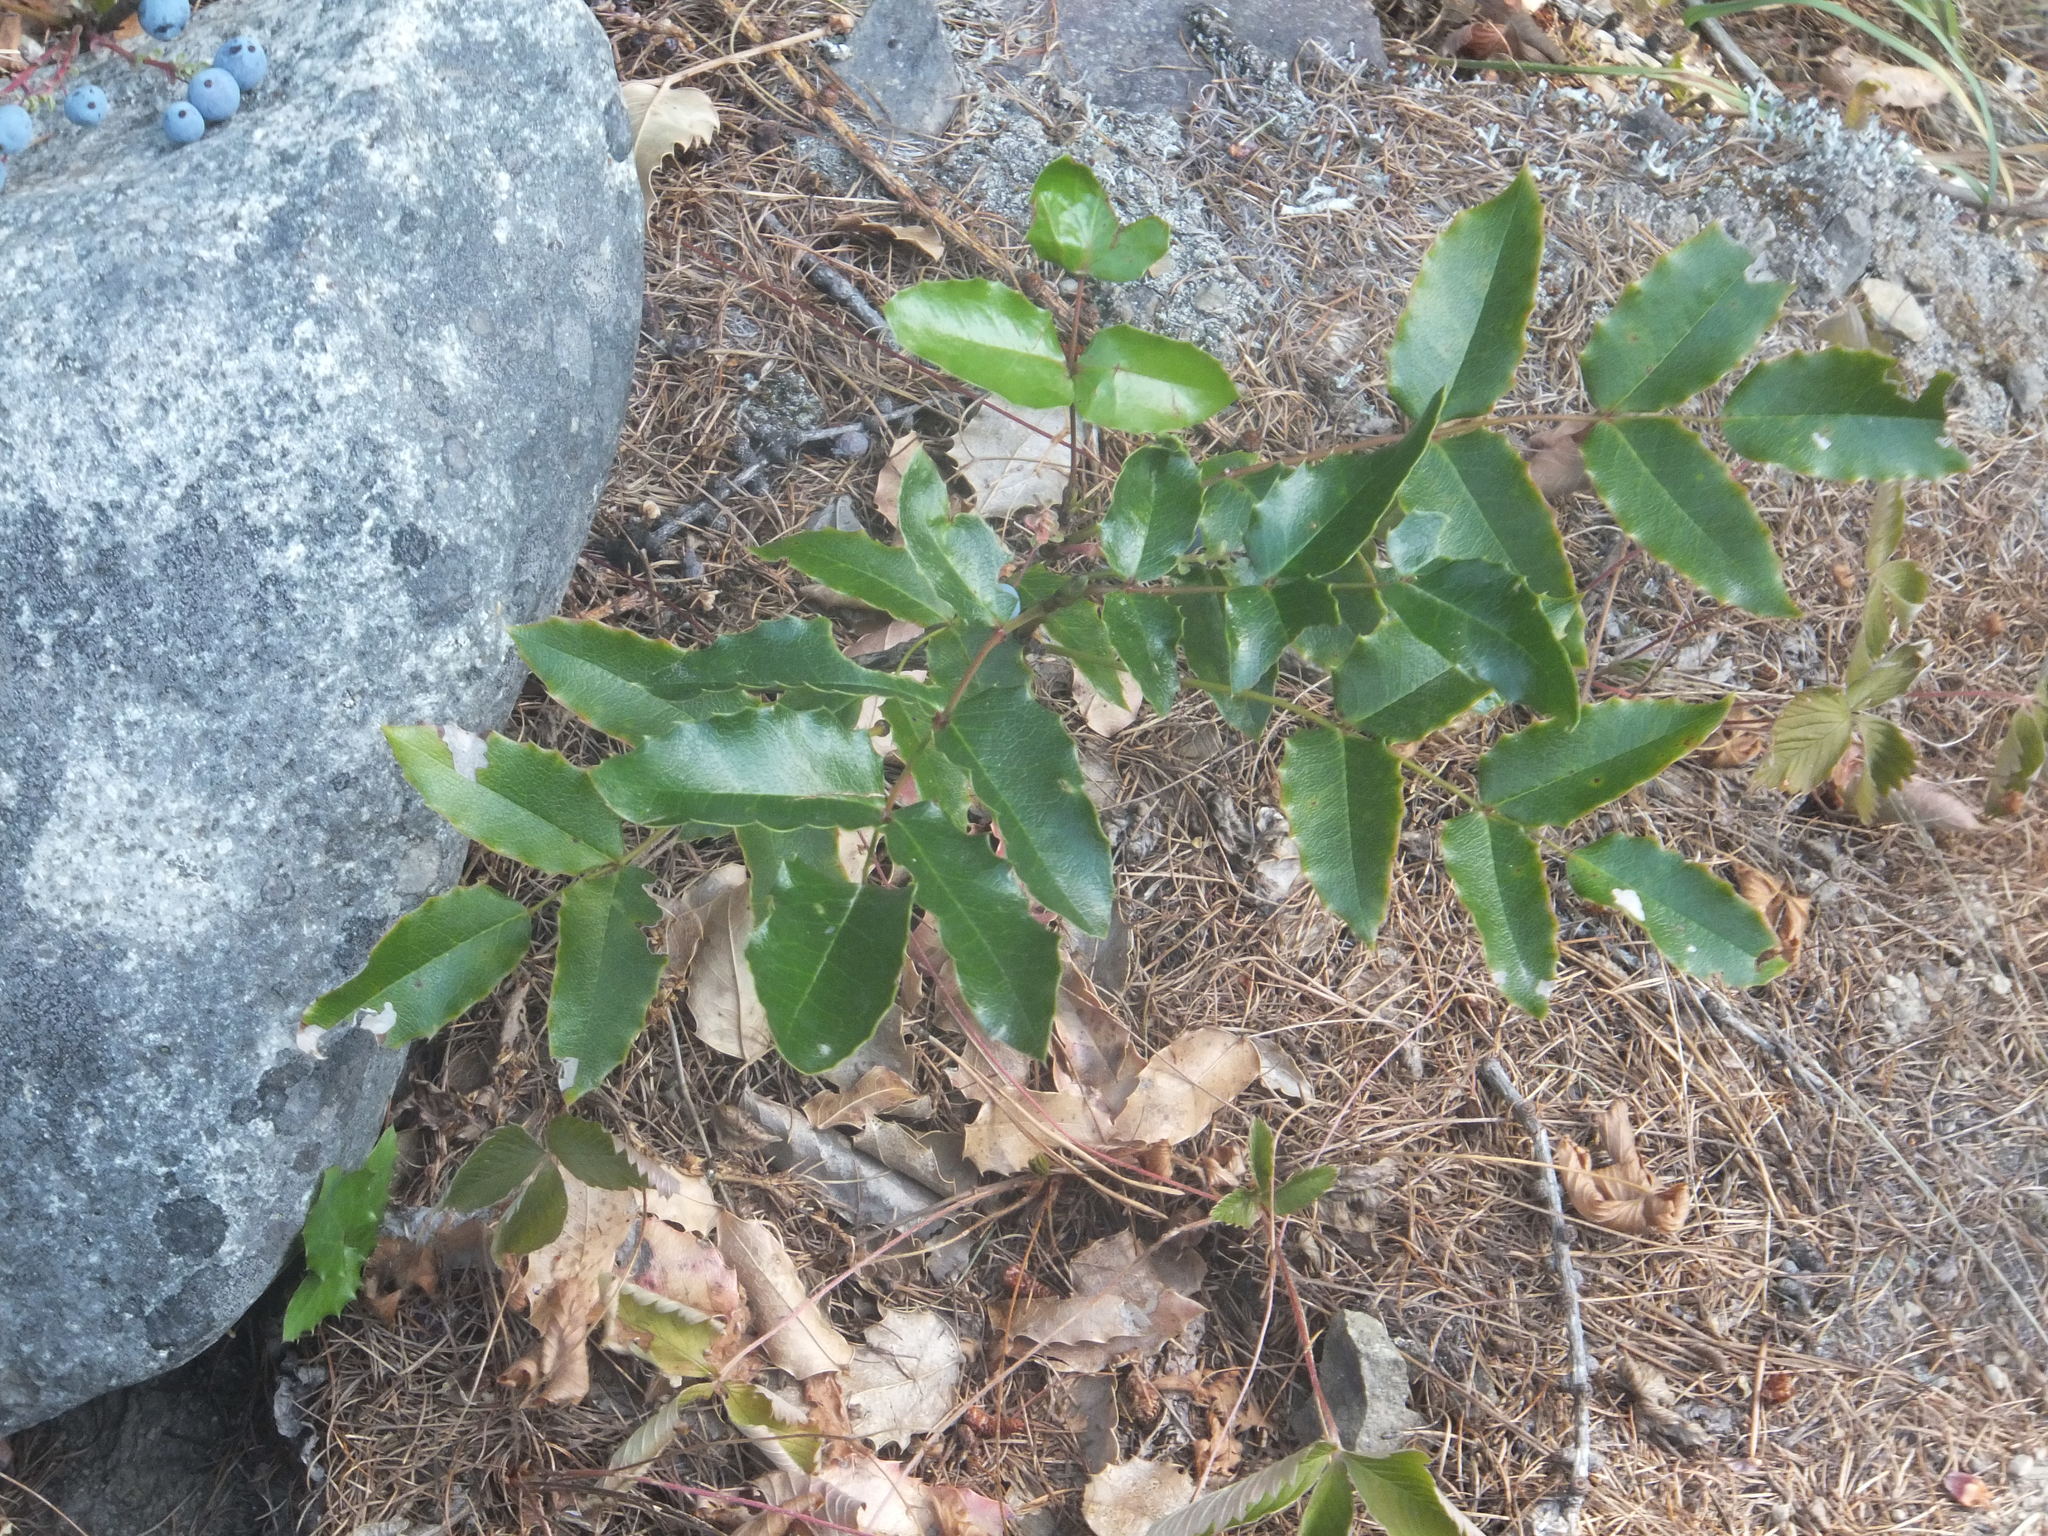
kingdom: Plantae
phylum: Tracheophyta
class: Magnoliopsida
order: Ranunculales
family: Berberidaceae
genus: Mahonia
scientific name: Mahonia aquifolium
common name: Oregon-grape
